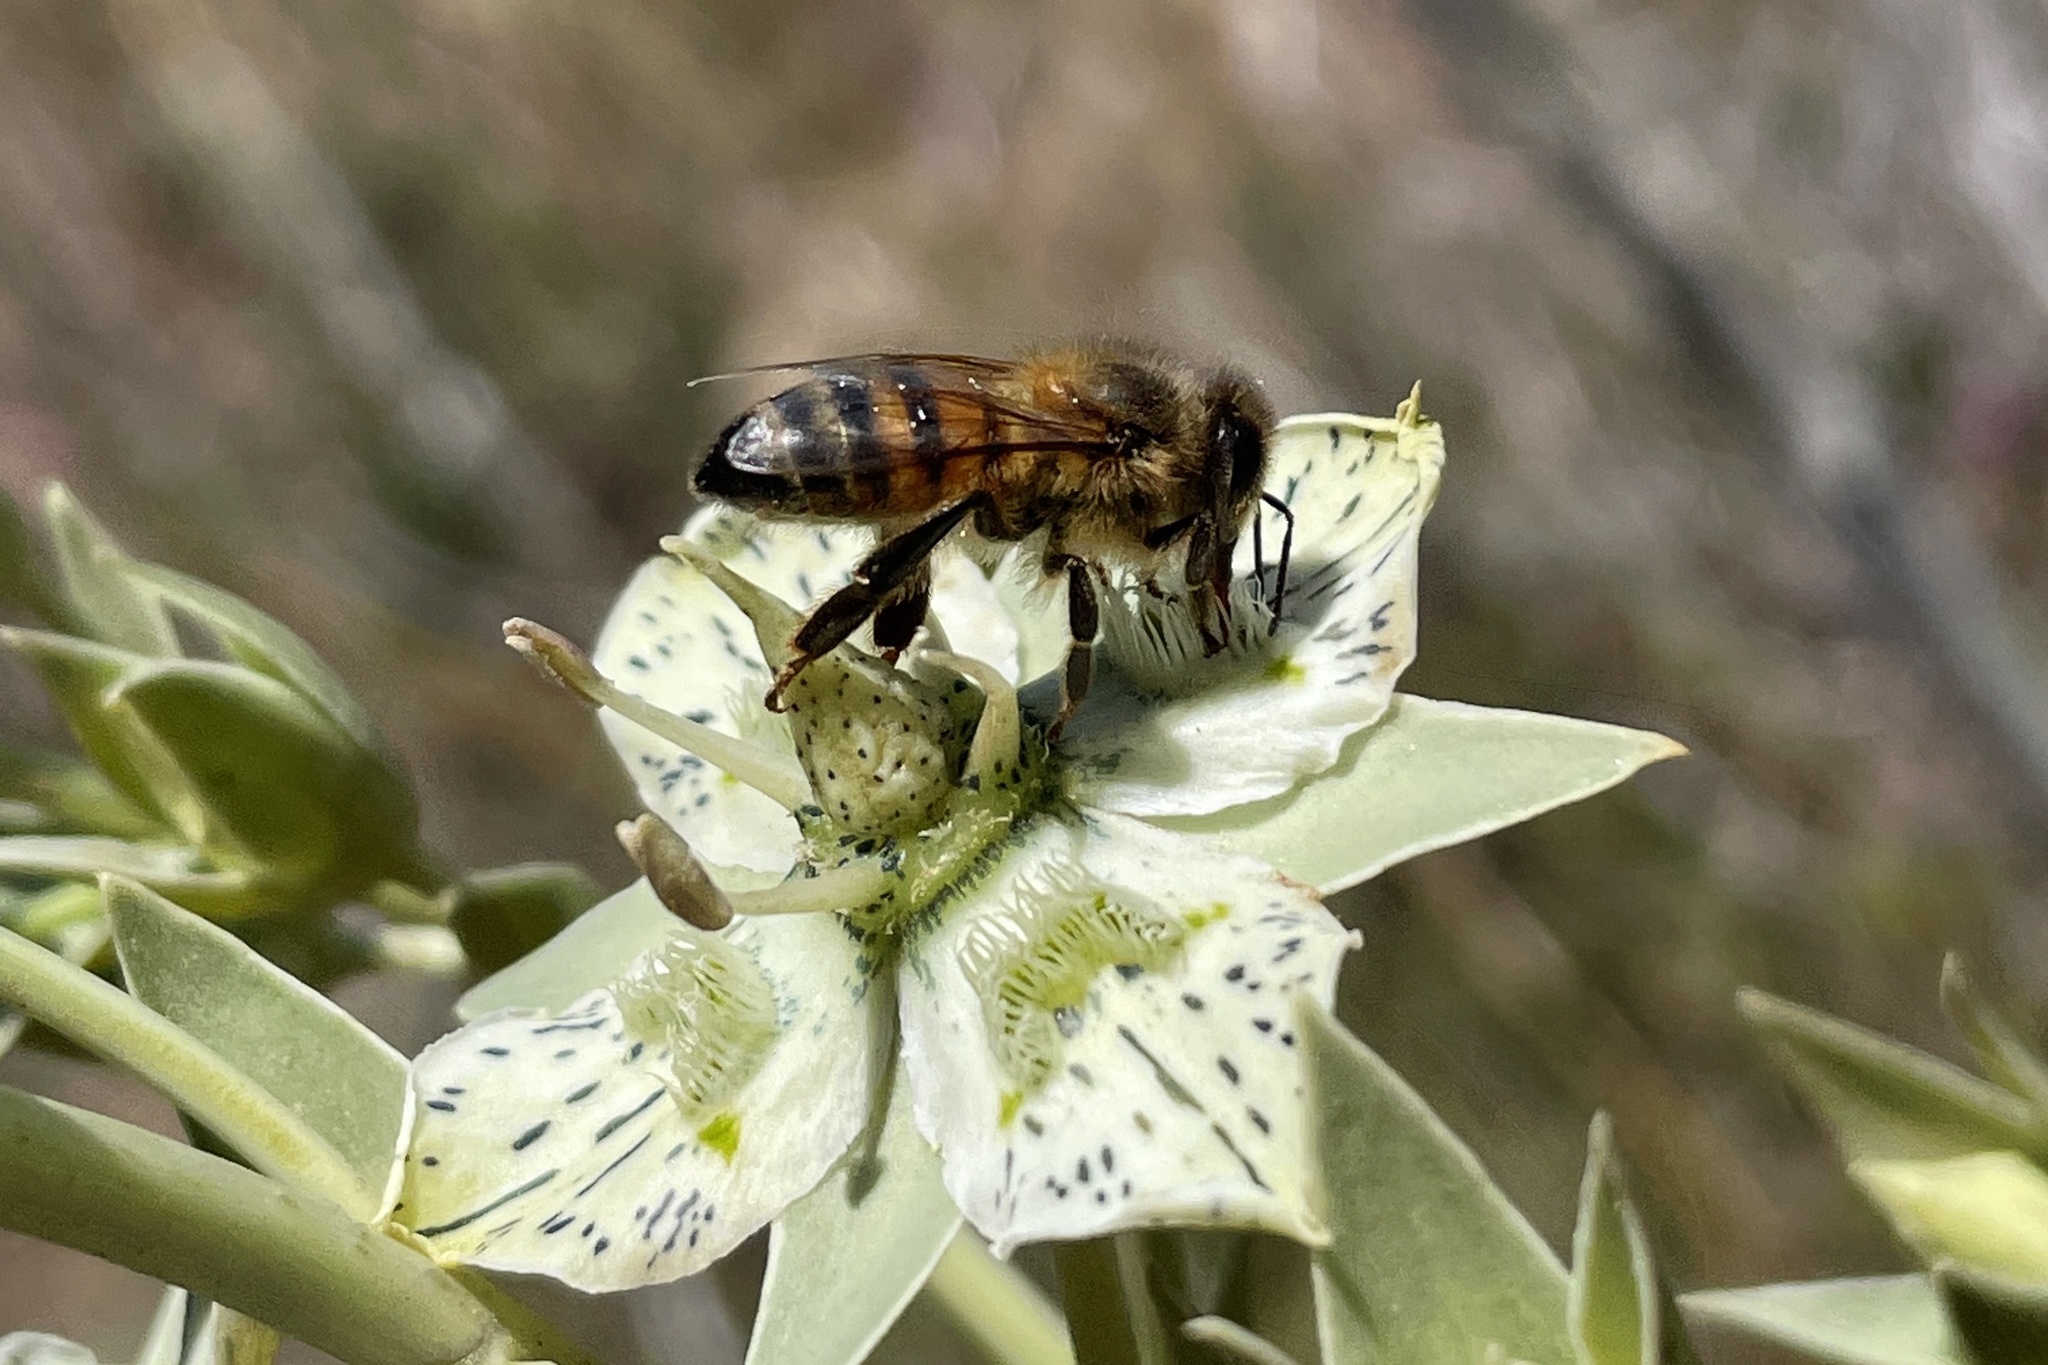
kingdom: Animalia
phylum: Arthropoda
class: Insecta
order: Hymenoptera
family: Apidae
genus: Apis
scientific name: Apis mellifera
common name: Honey bee
